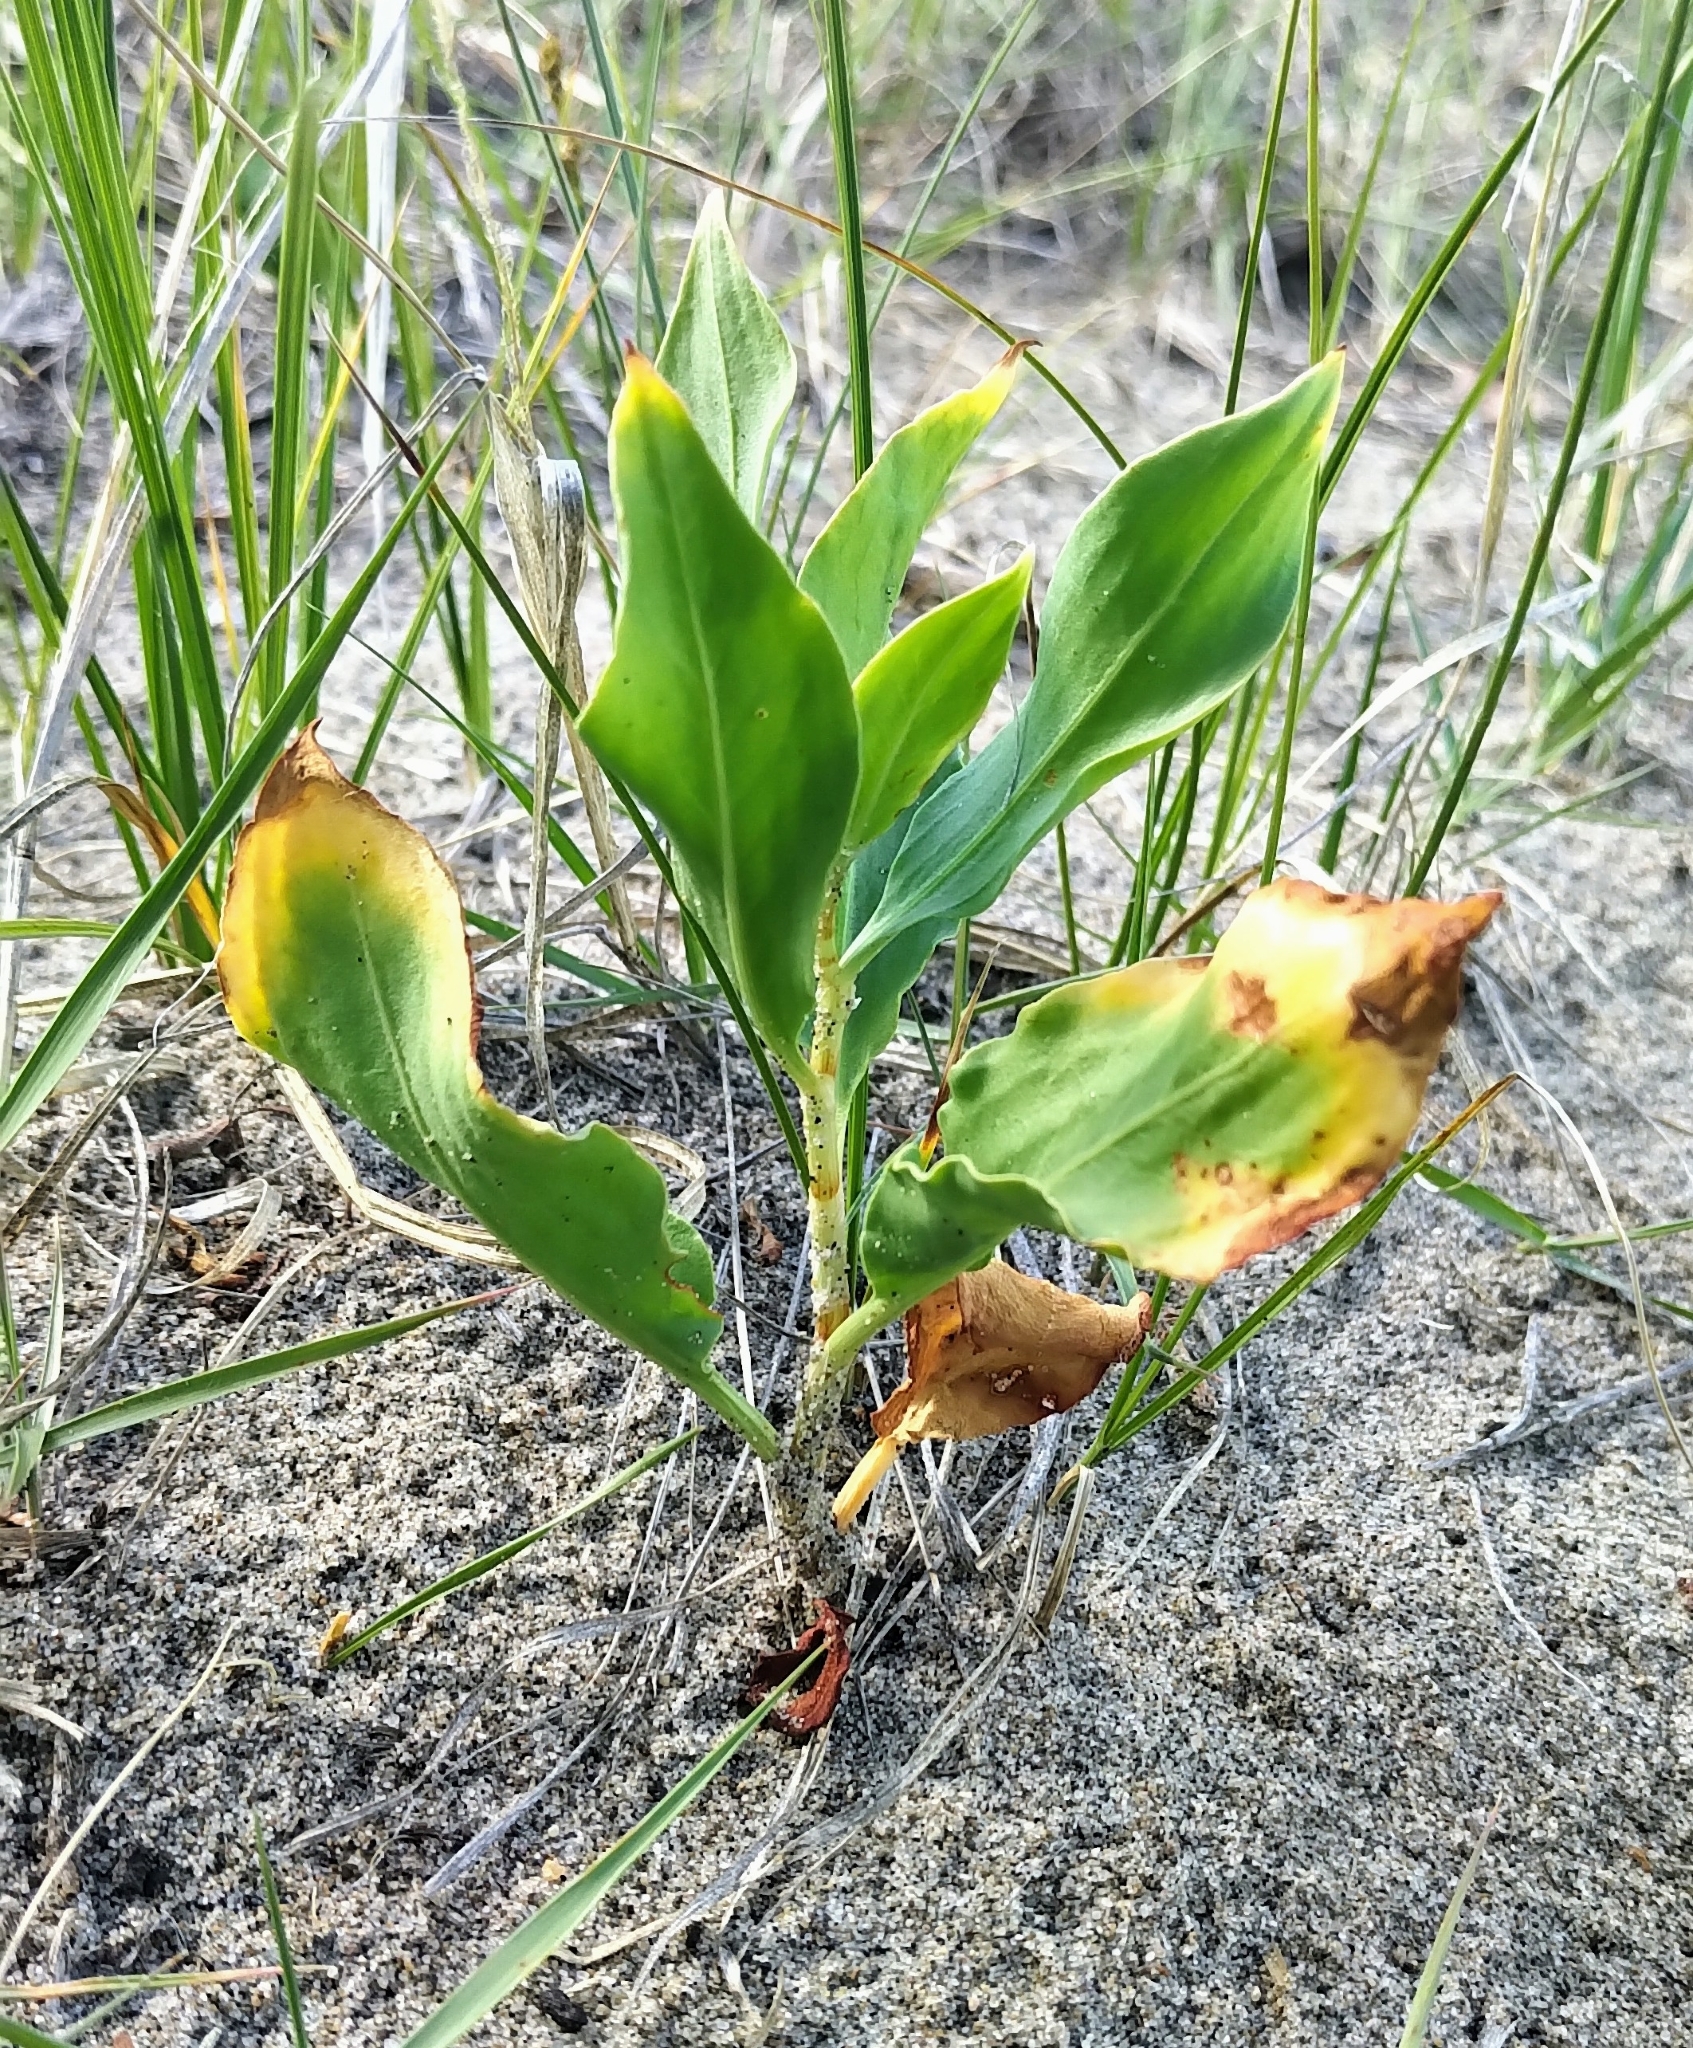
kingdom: Plantae
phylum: Tracheophyta
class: Magnoliopsida
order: Caryophyllales
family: Polygonaceae
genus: Rumex
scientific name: Rumex venosus
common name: Winged dock
